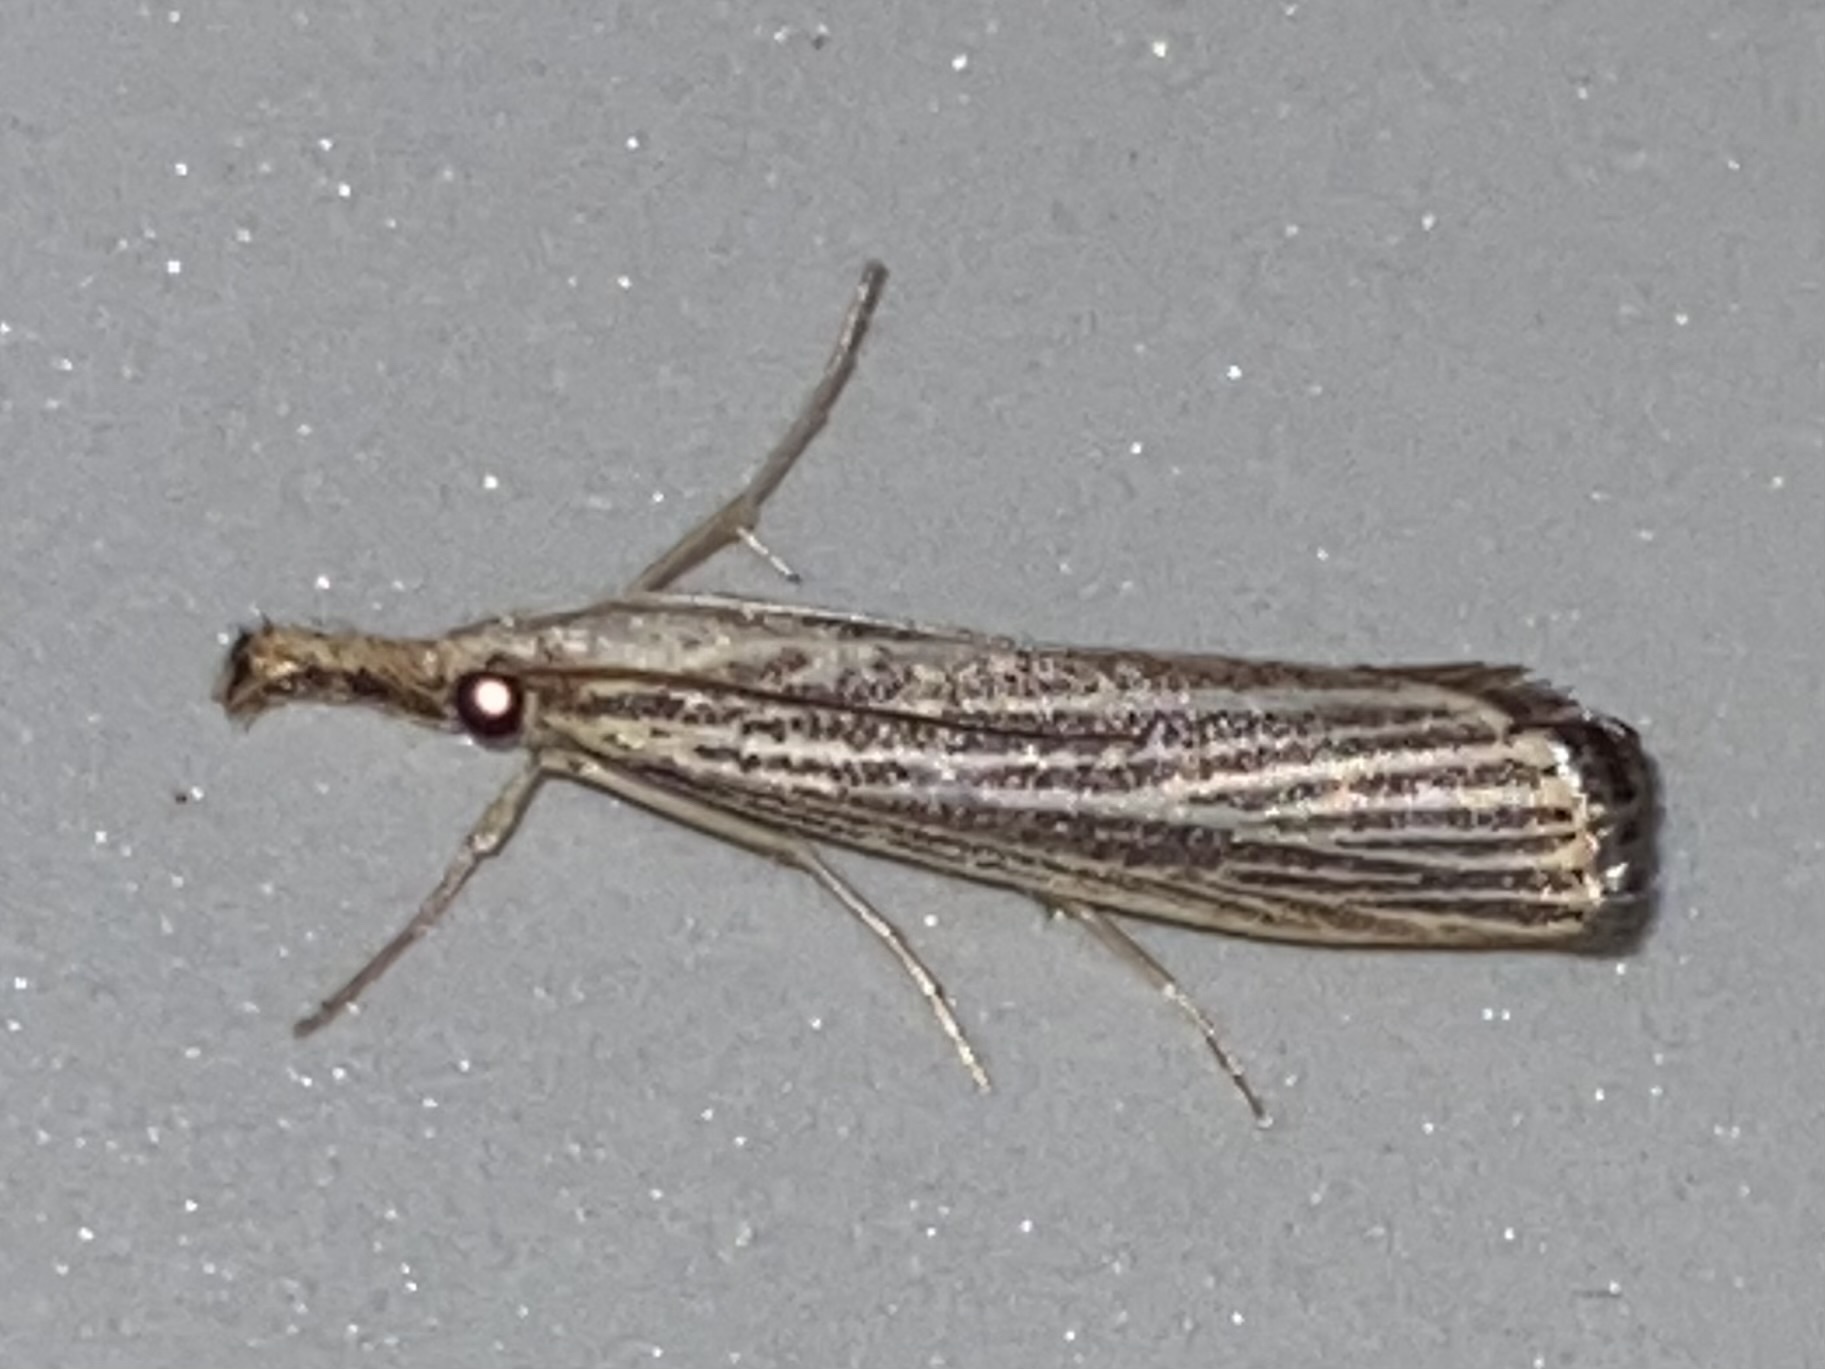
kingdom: Animalia
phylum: Arthropoda
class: Insecta
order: Lepidoptera
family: Crambidae
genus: Agriphila
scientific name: Agriphila vulgivagellus
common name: Vagabond crambus moth
